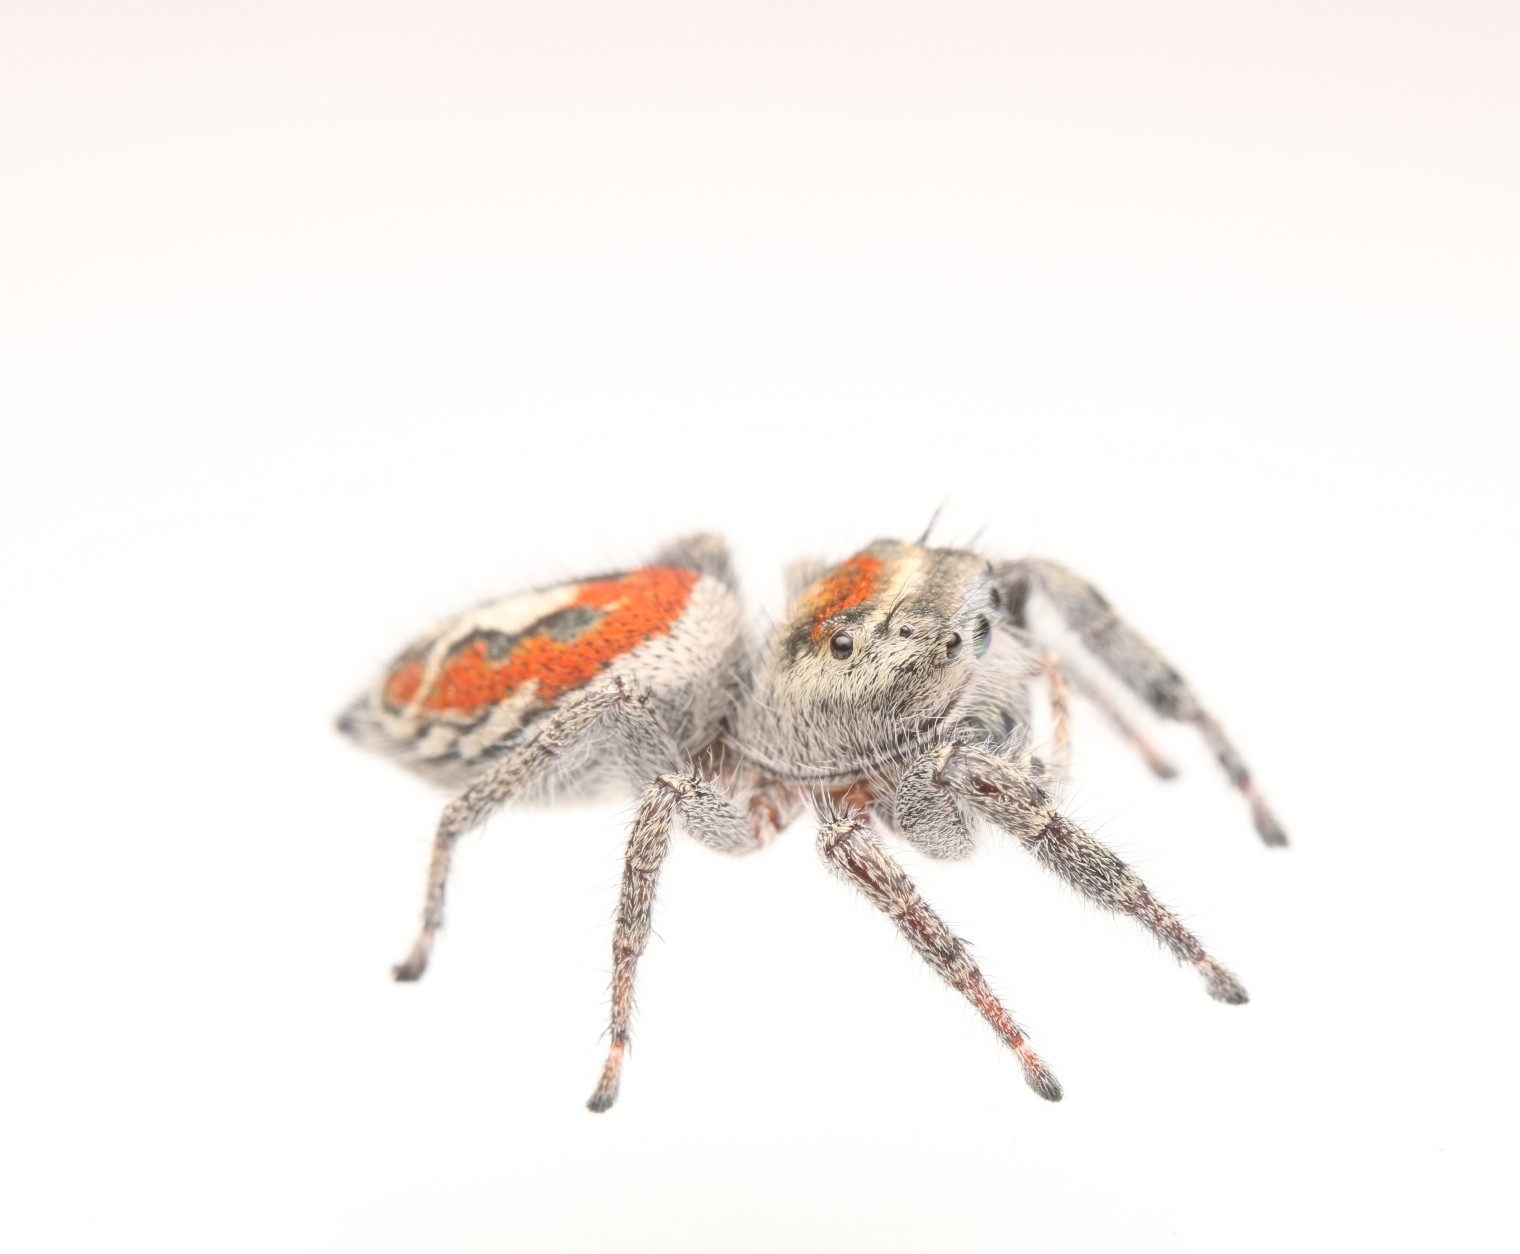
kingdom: Animalia
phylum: Arthropoda
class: Arachnida
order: Araneae
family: Salticidae
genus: Phidippus
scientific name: Phidippus vexans
